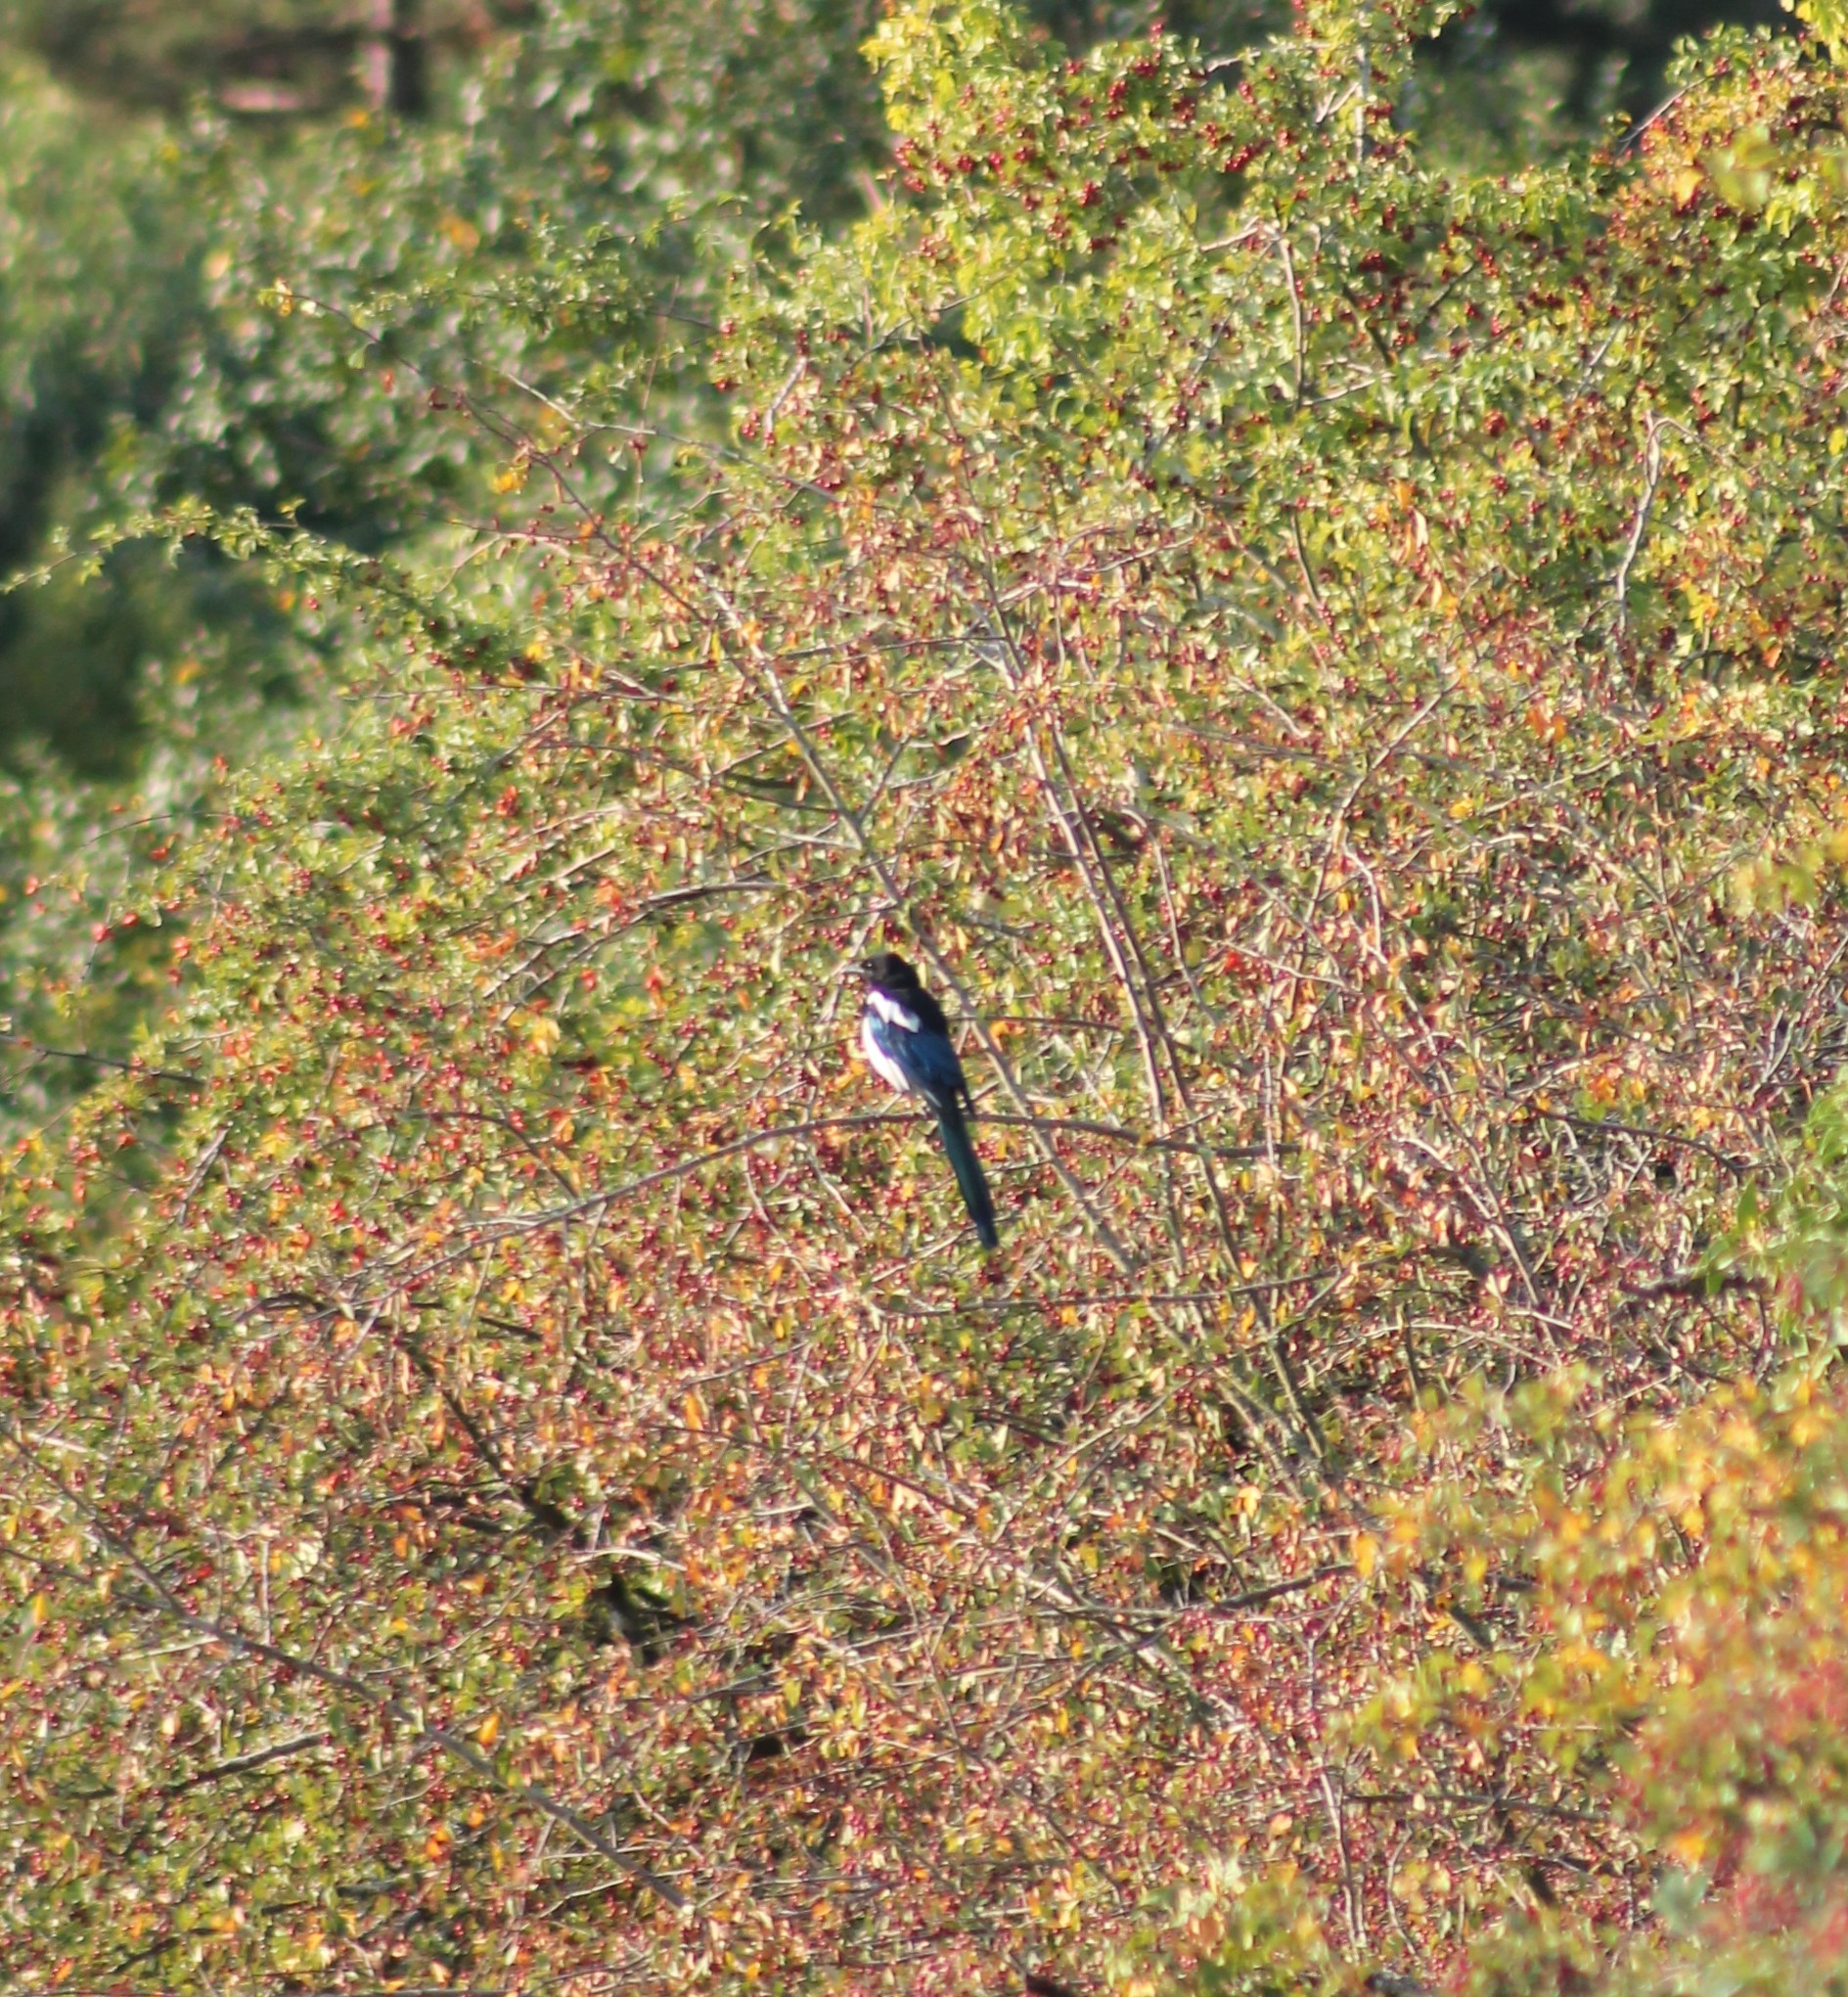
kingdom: Animalia
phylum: Chordata
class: Aves
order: Passeriformes
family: Corvidae
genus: Pica
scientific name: Pica pica
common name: Eurasian magpie
